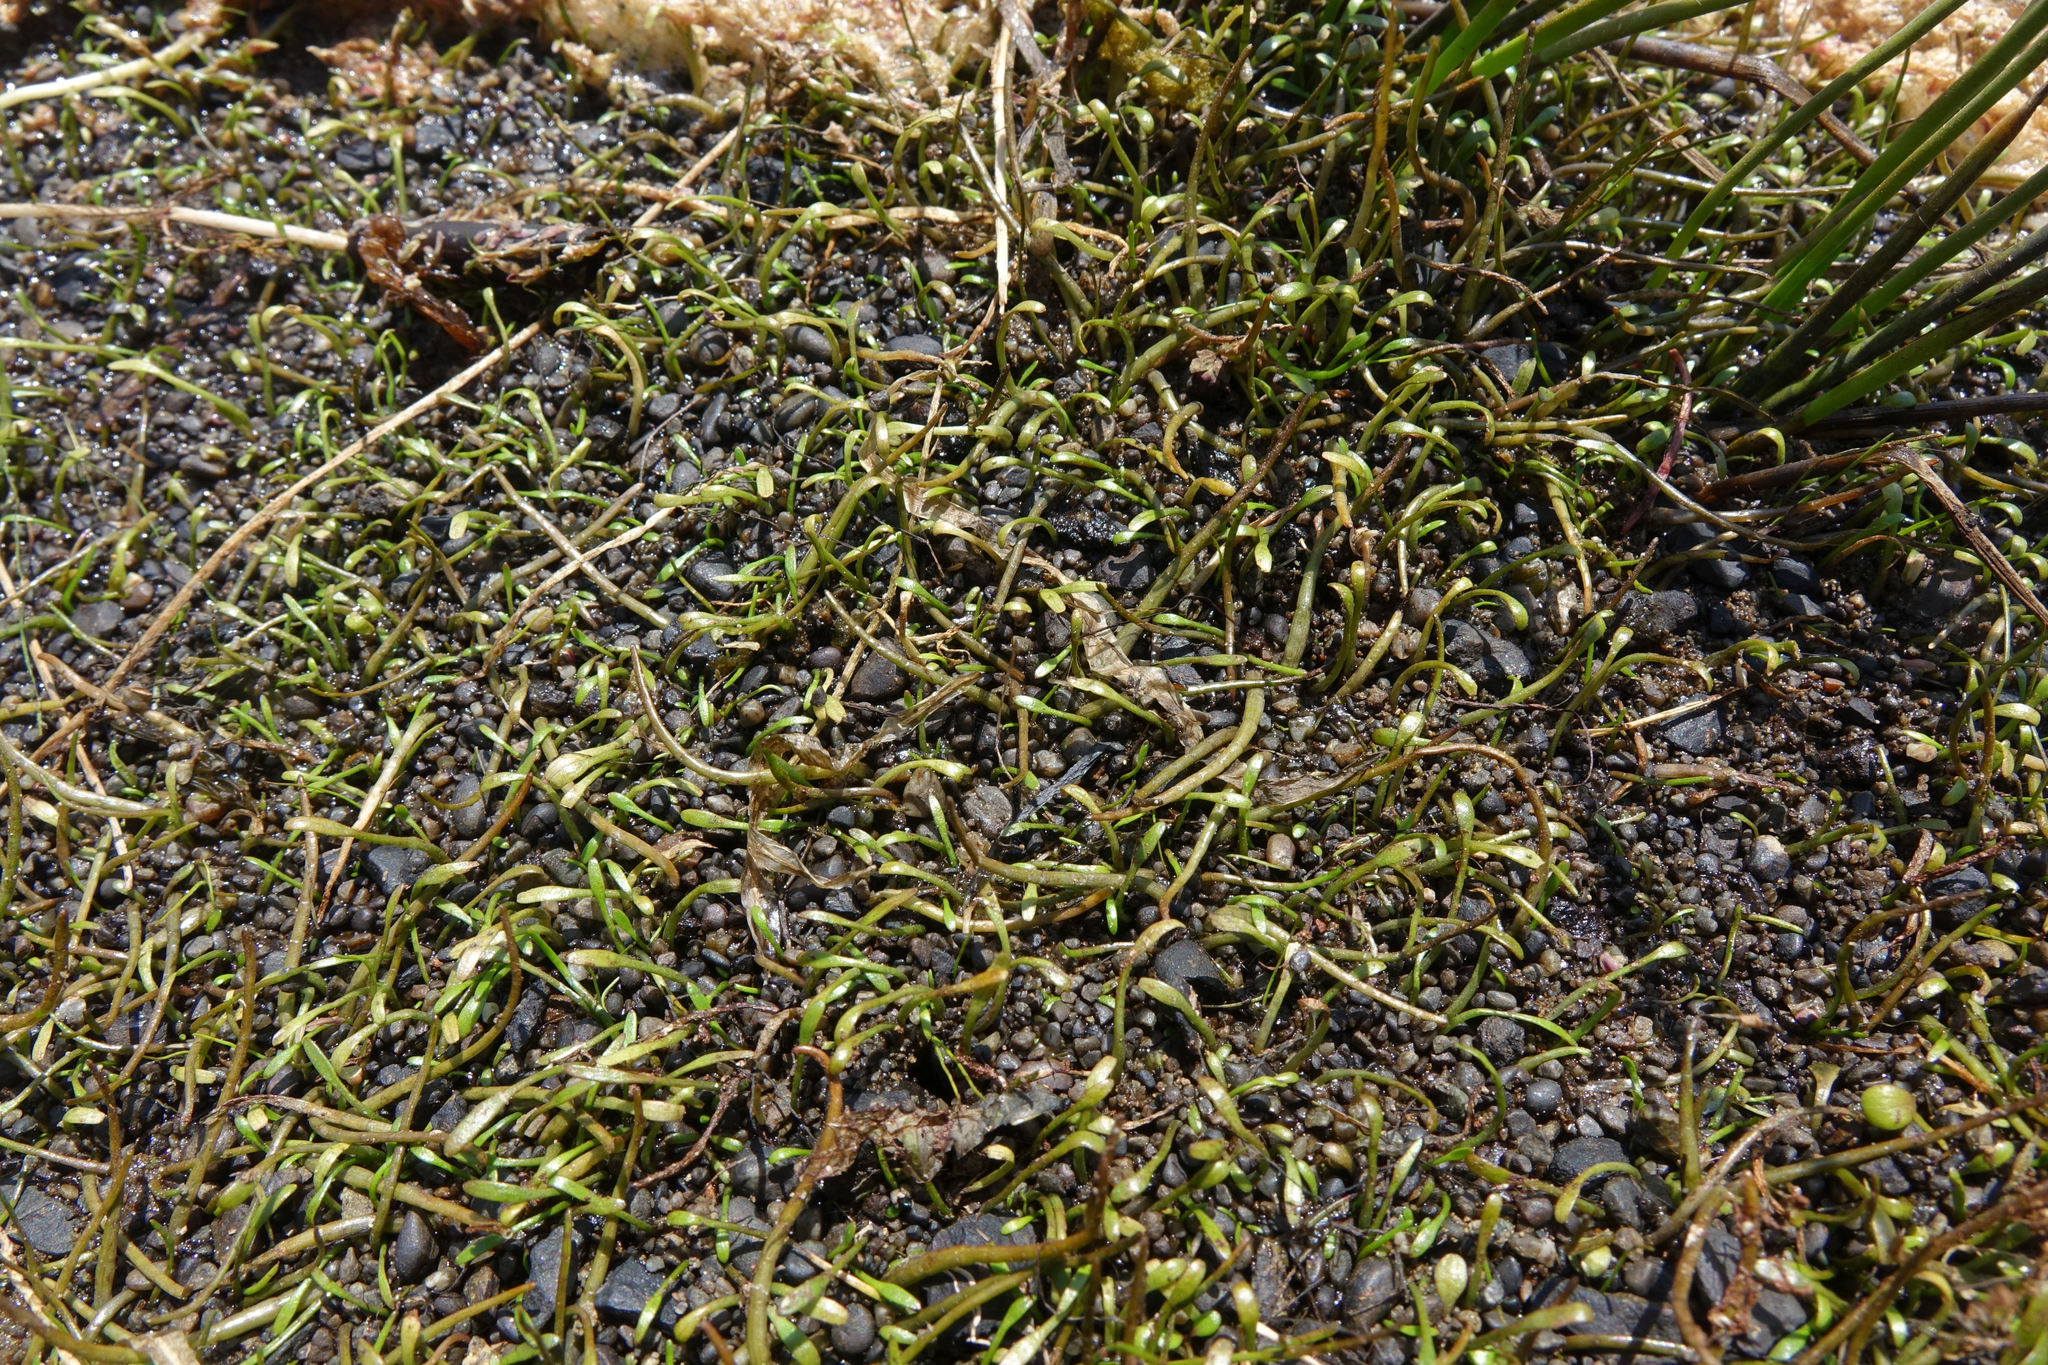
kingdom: Plantae
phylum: Tracheophyta
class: Magnoliopsida
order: Ranunculales
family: Ranunculaceae
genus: Ranunculus
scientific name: Ranunculus limosella
